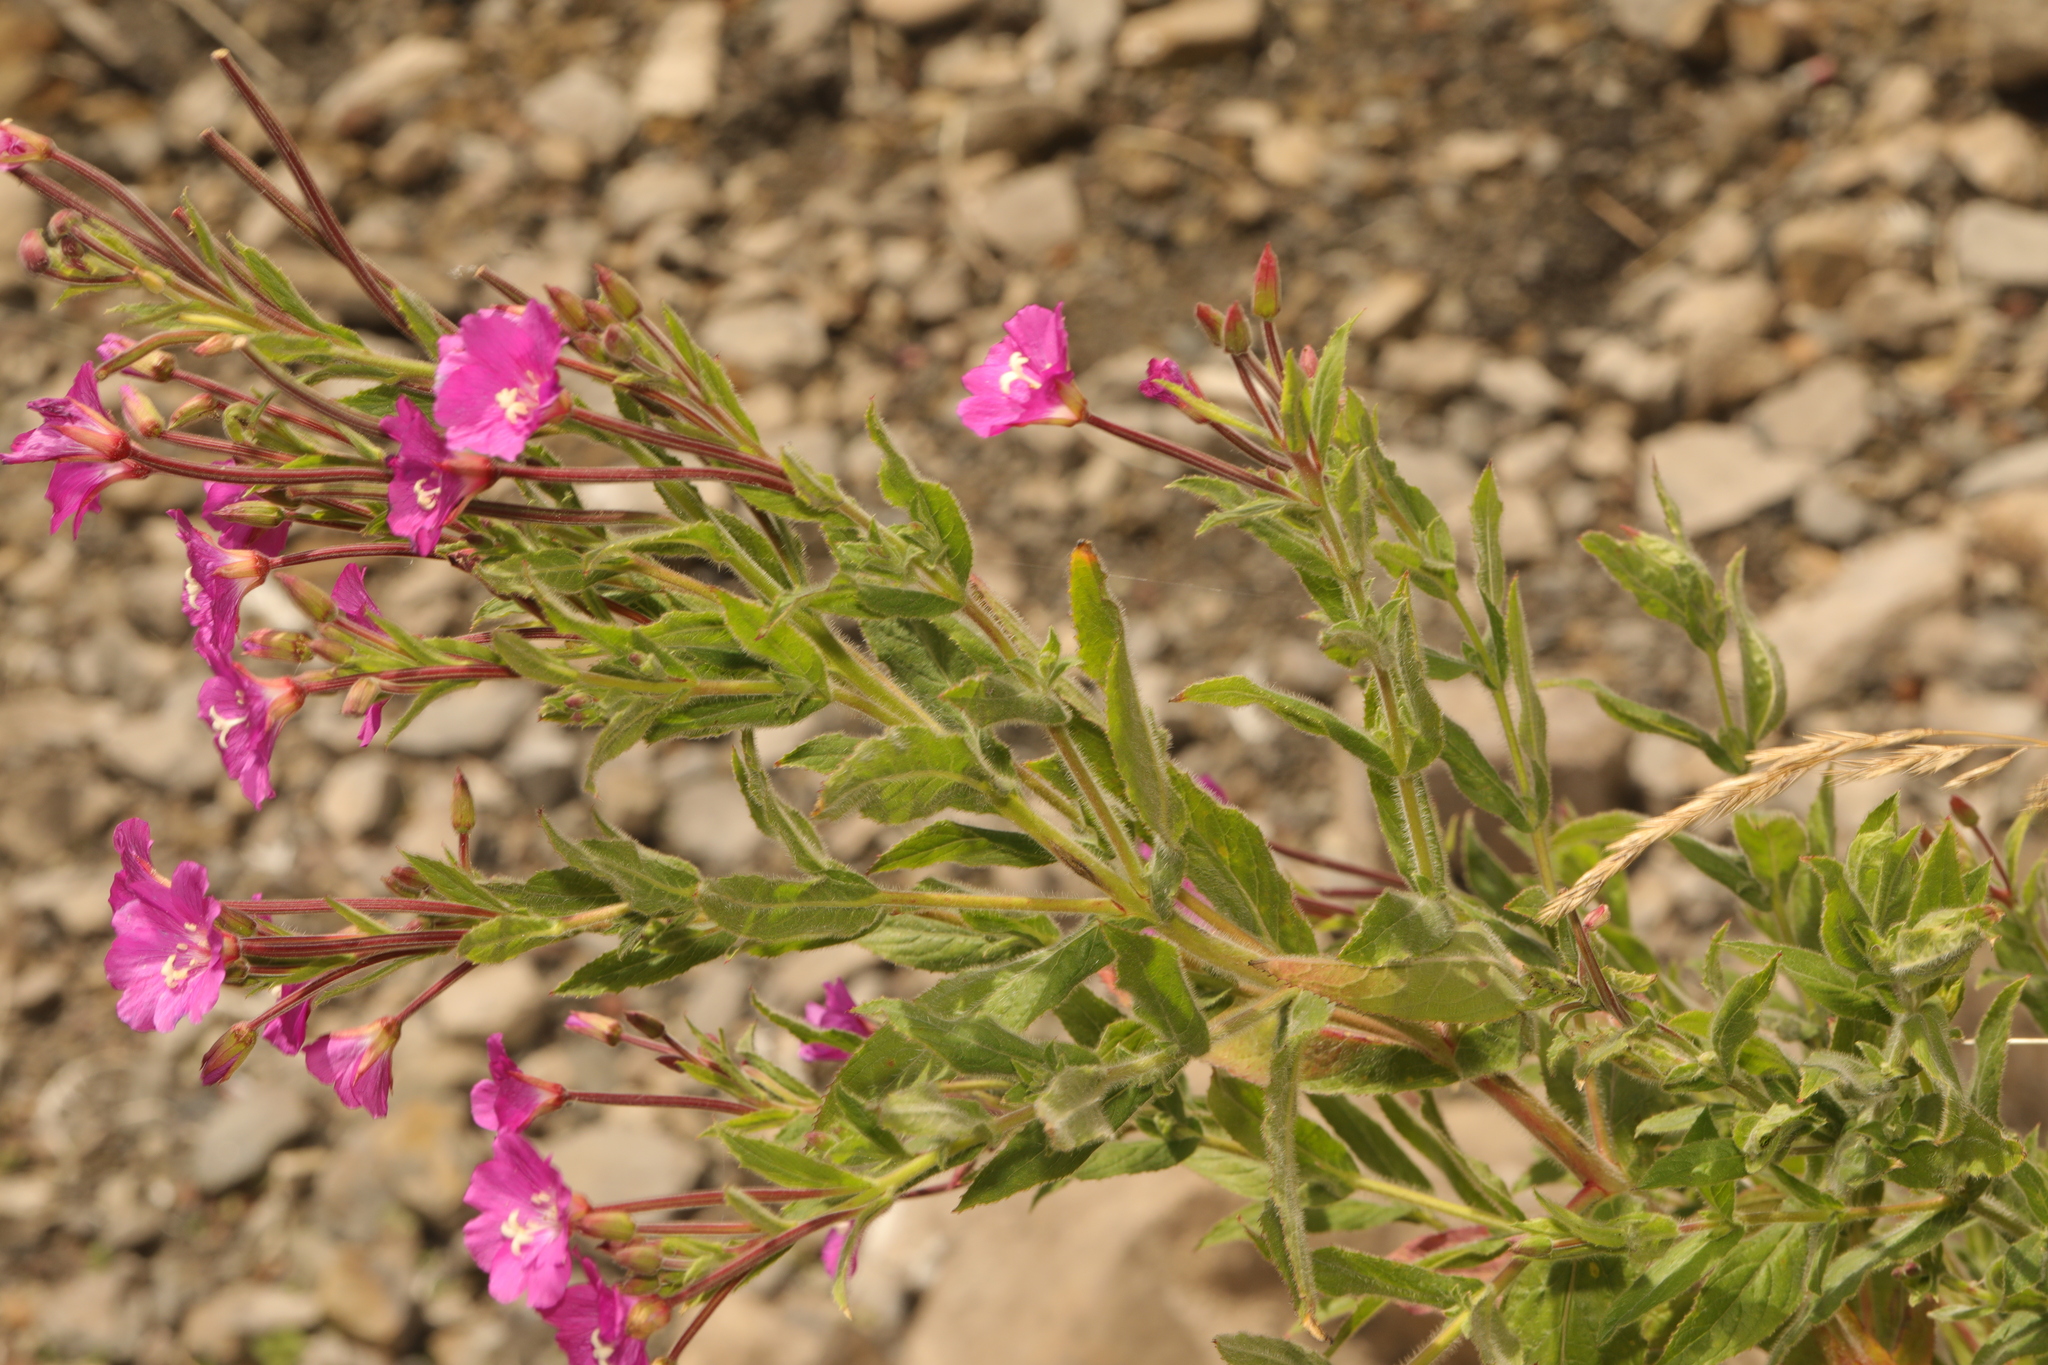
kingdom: Plantae
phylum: Tracheophyta
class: Magnoliopsida
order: Myrtales
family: Onagraceae
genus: Epilobium
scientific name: Epilobium hirsutum
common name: Great willowherb
